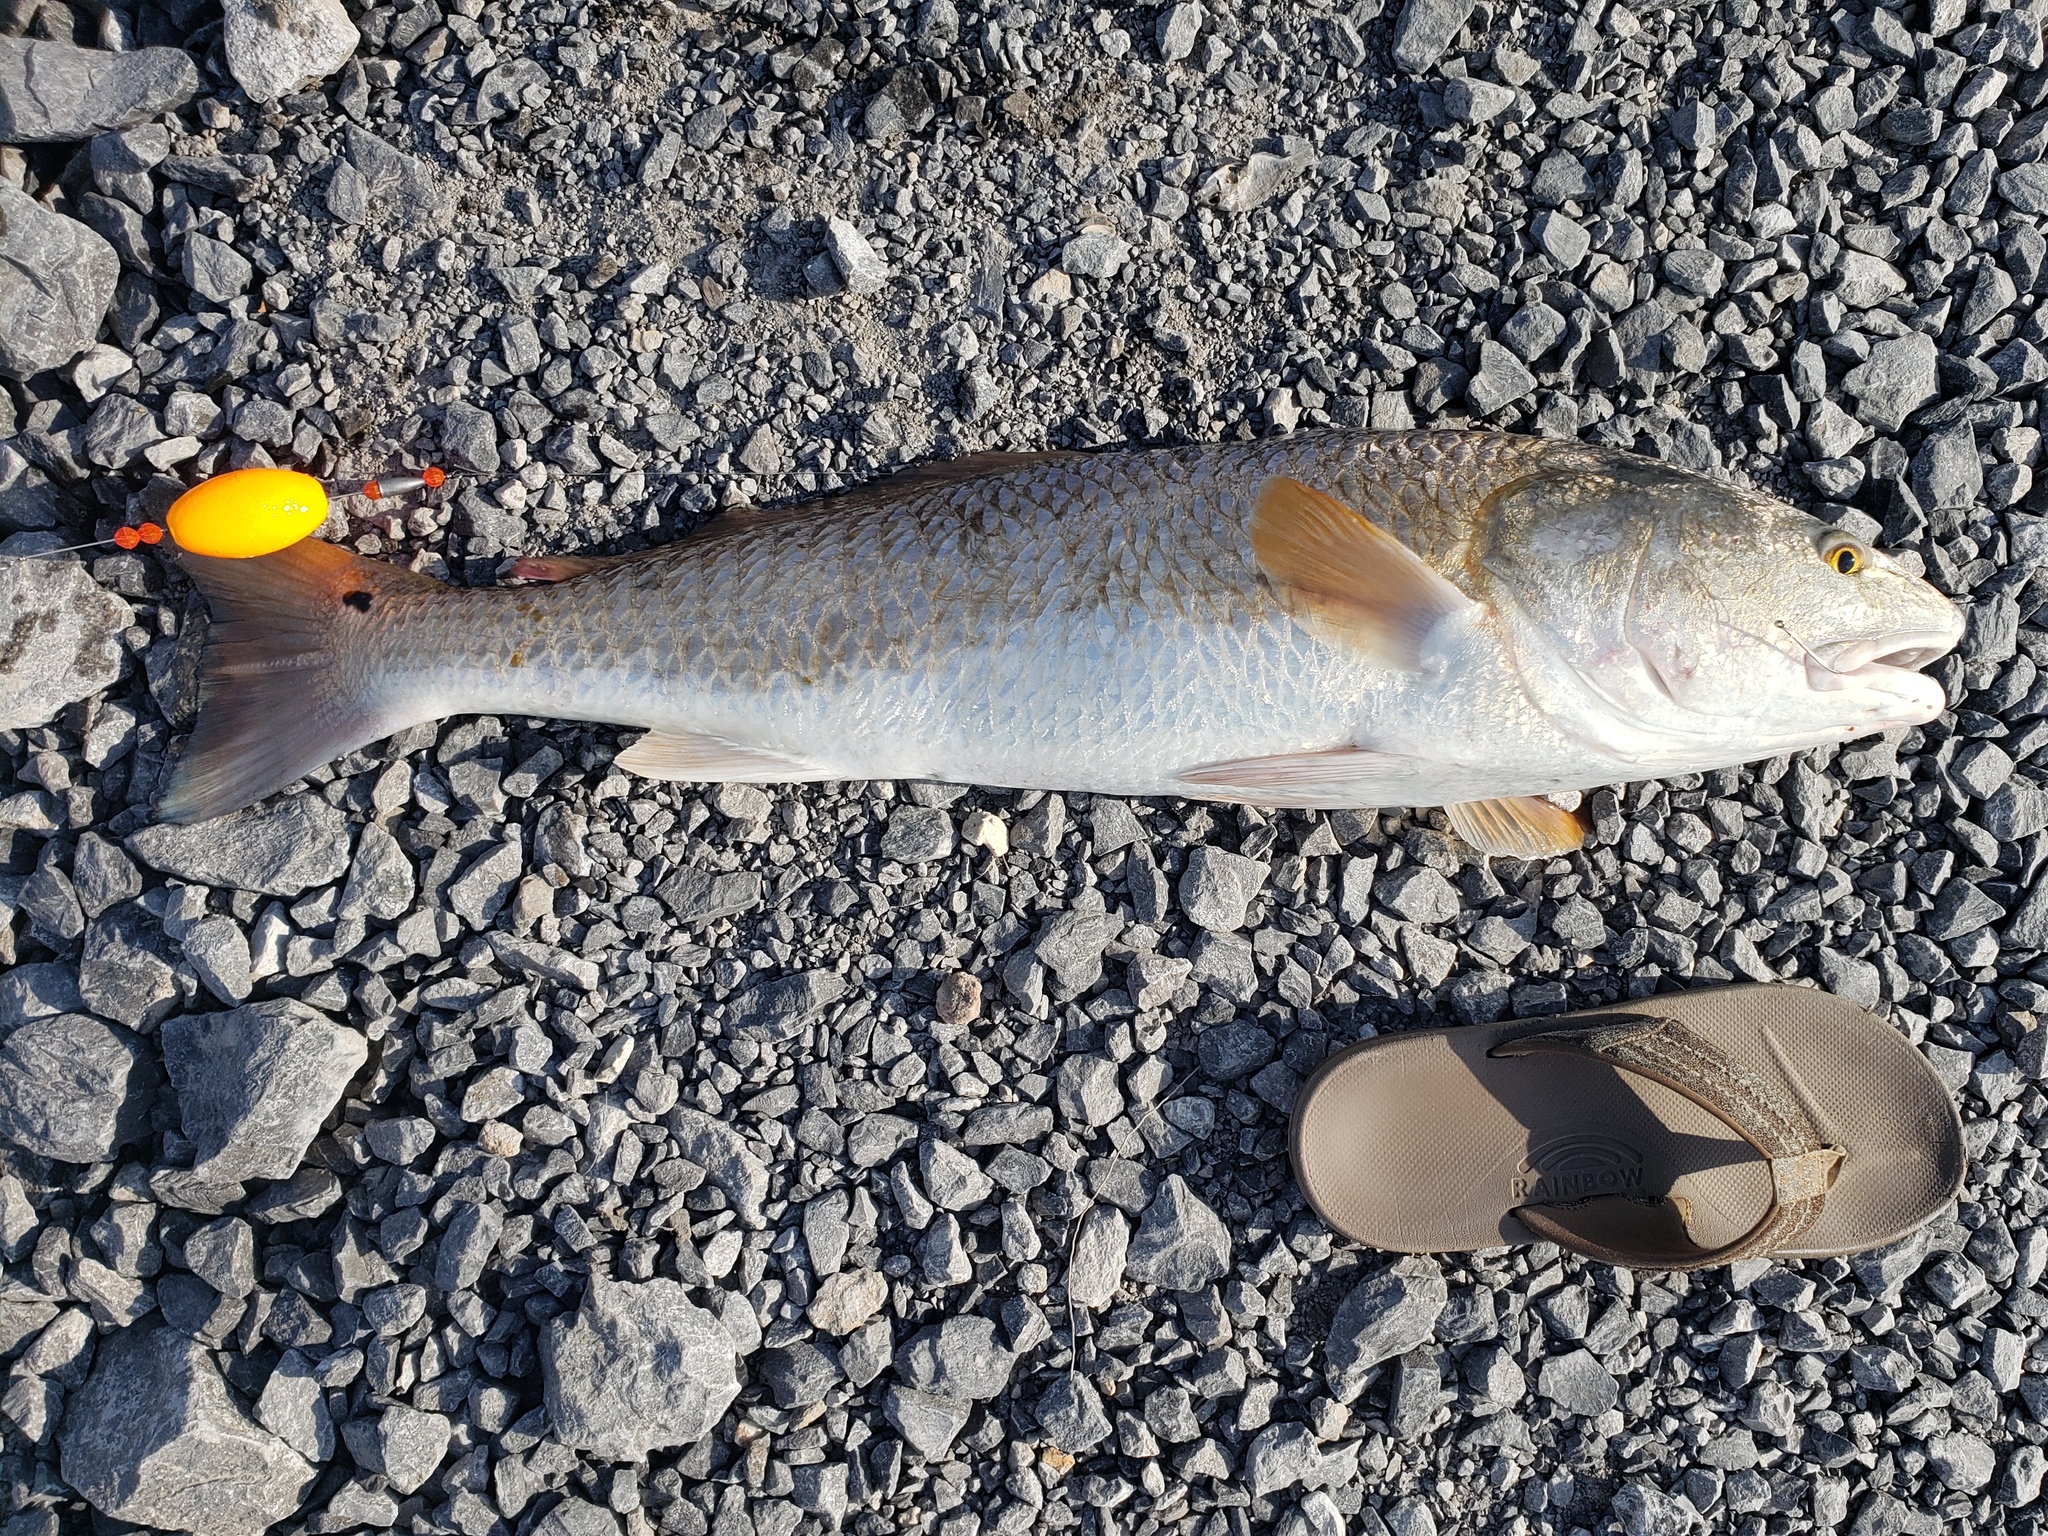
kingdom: Animalia
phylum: Chordata
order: Perciformes
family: Sciaenidae
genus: Sciaenops
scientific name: Sciaenops ocellatus
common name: Red drum
